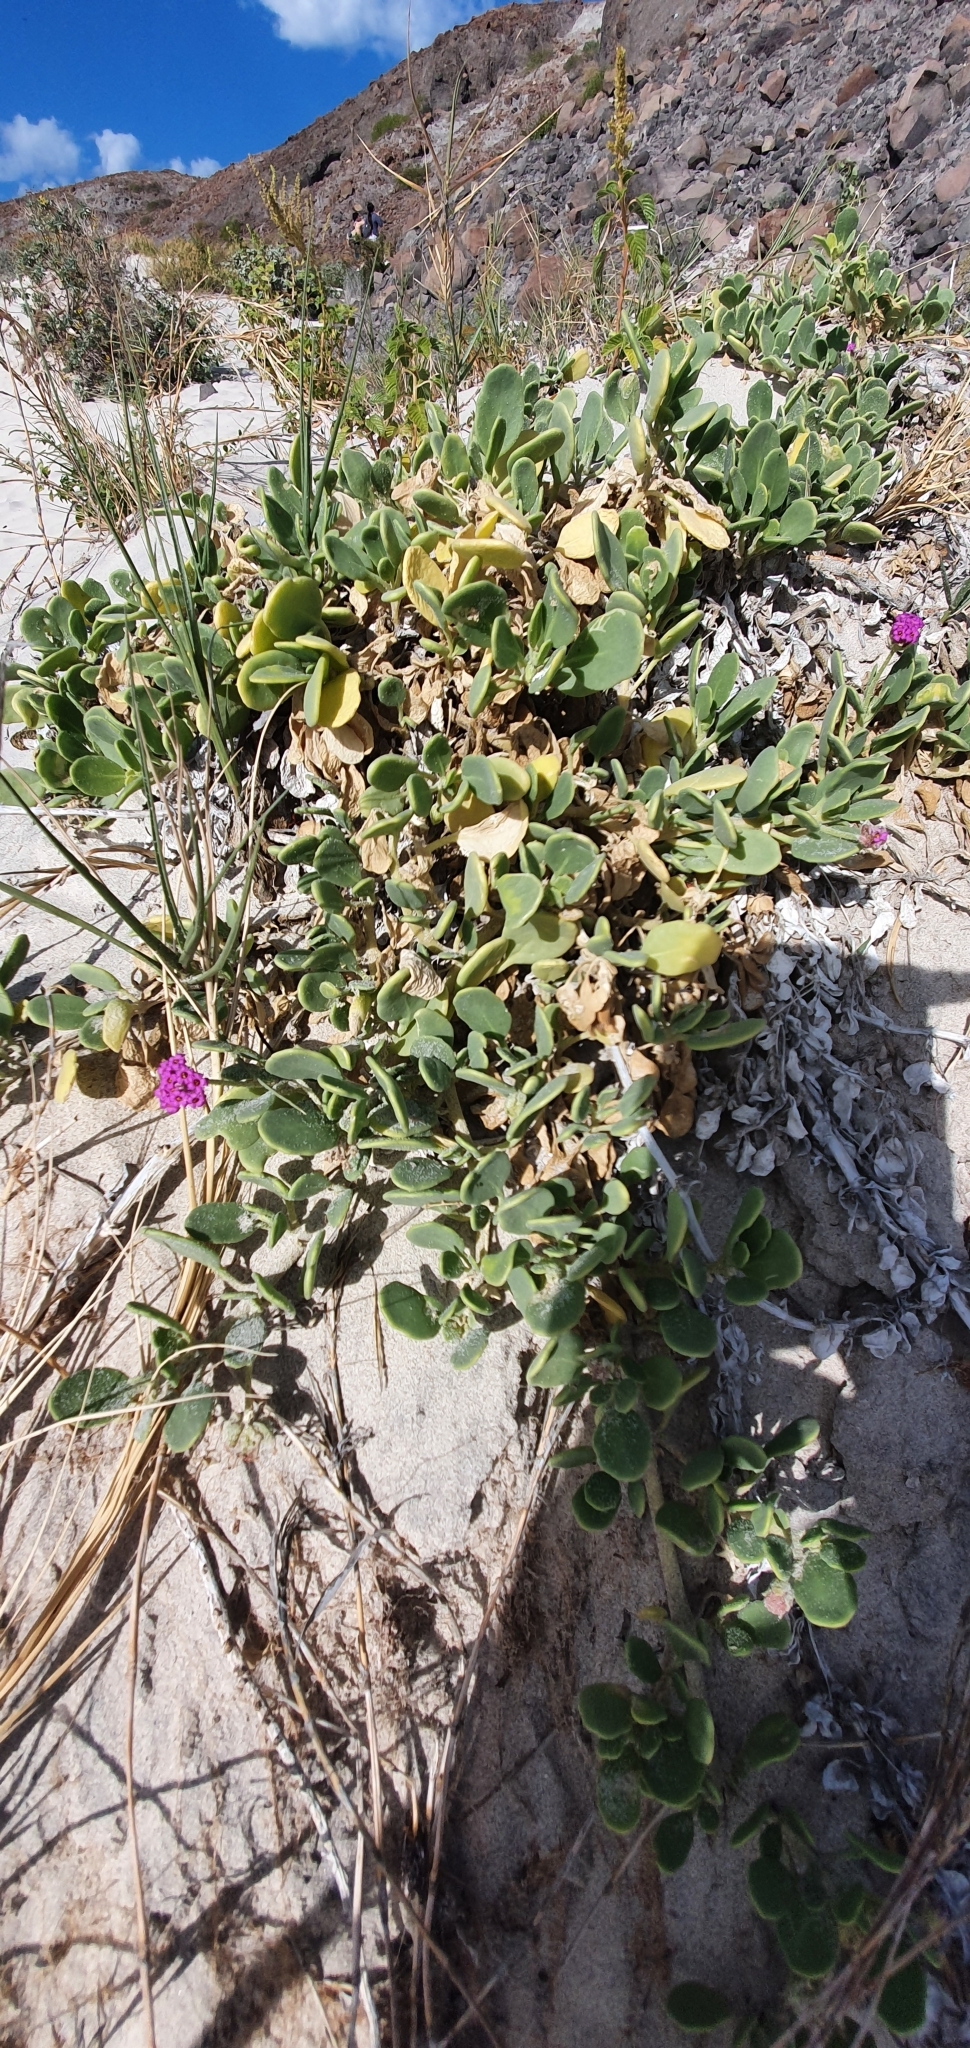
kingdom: Plantae
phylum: Tracheophyta
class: Magnoliopsida
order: Caryophyllales
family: Nyctaginaceae
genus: Abronia
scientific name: Abronia maritima
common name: Red sand-verbena
